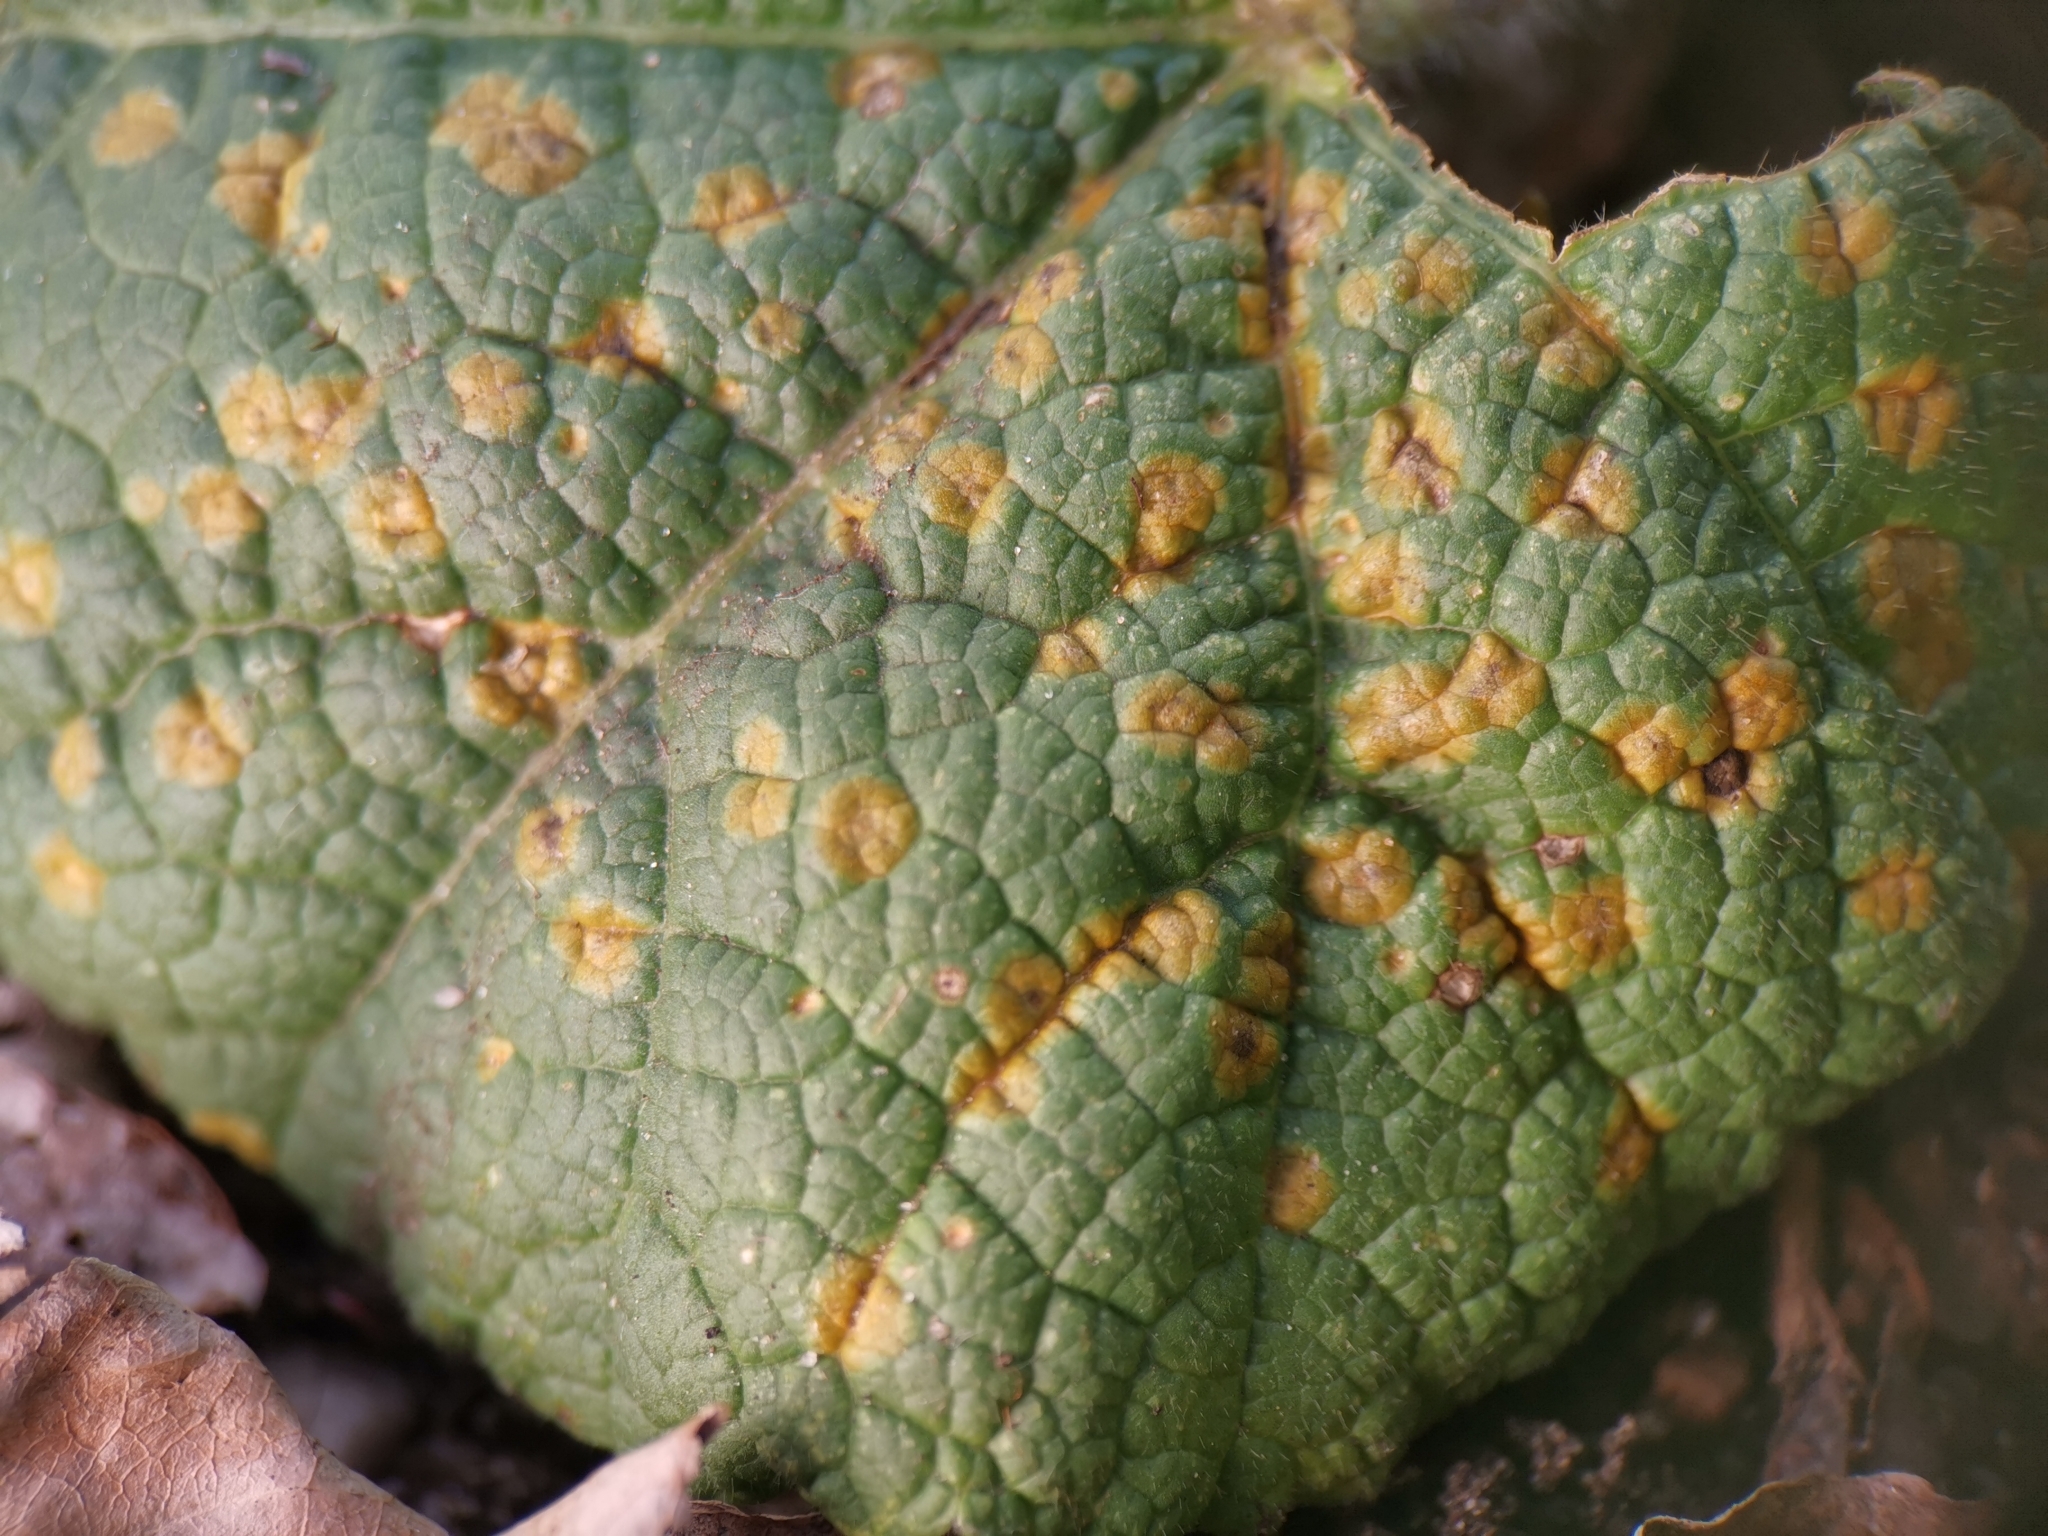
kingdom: Fungi
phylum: Basidiomycota
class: Pucciniomycetes
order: Pucciniales
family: Pucciniaceae
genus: Puccinia
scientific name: Puccinia malvacearum
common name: Hollyhock rust
